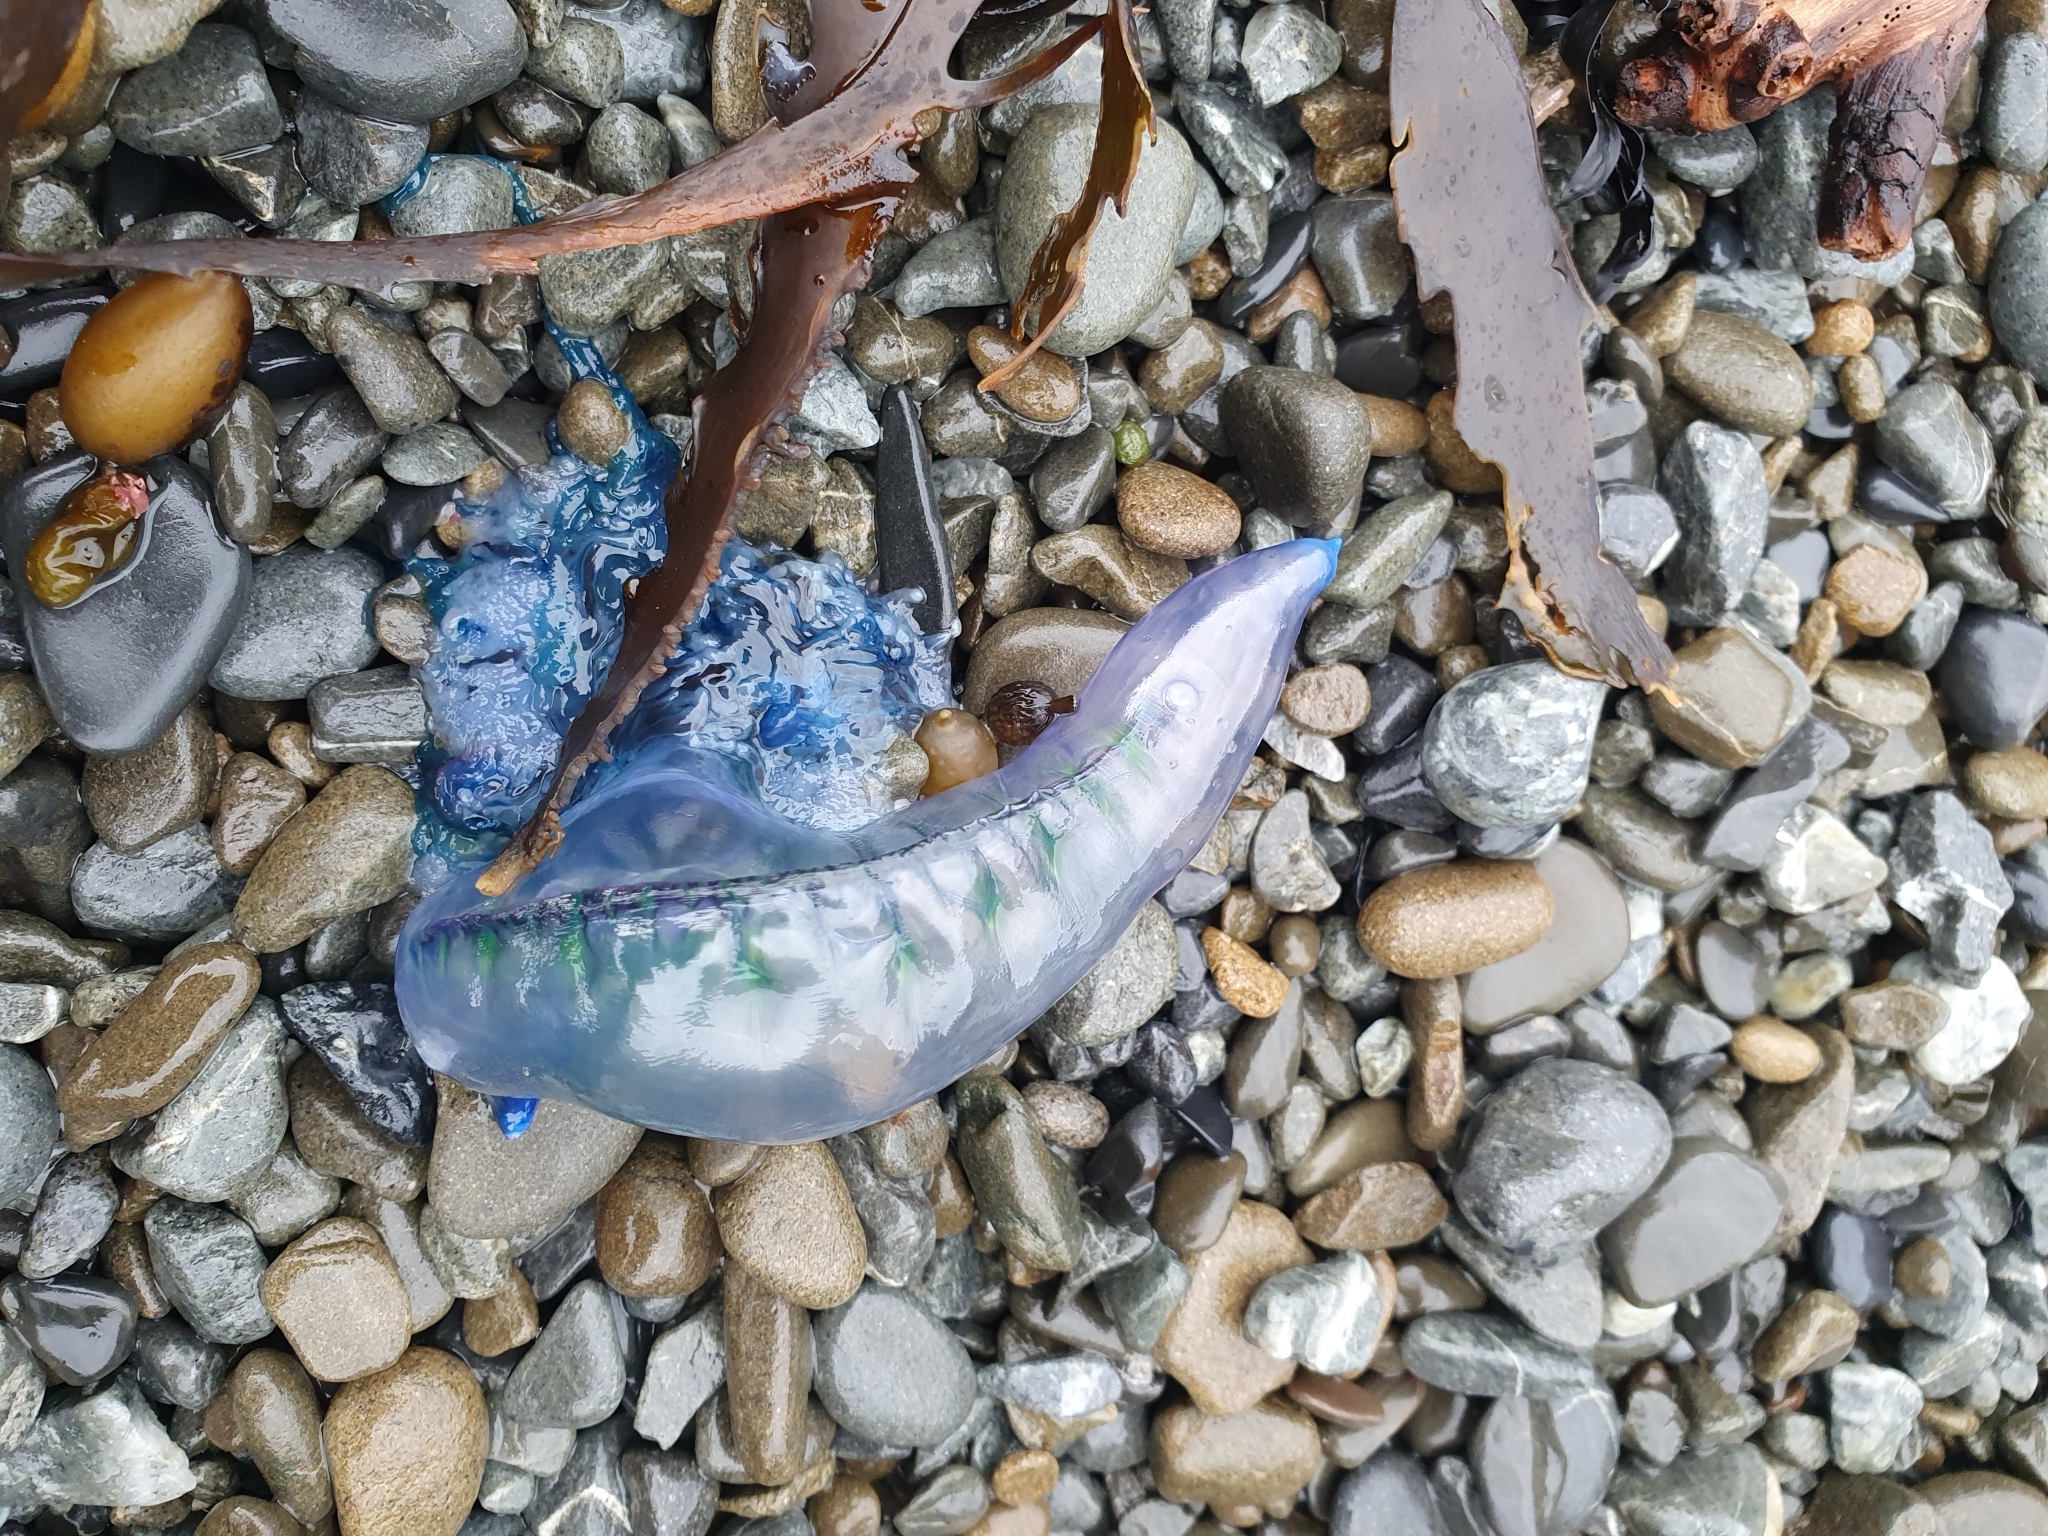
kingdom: Animalia
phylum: Cnidaria
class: Hydrozoa
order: Siphonophorae
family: Physaliidae
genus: Physalia
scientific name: Physalia physalis
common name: Portuguese man-of-war
